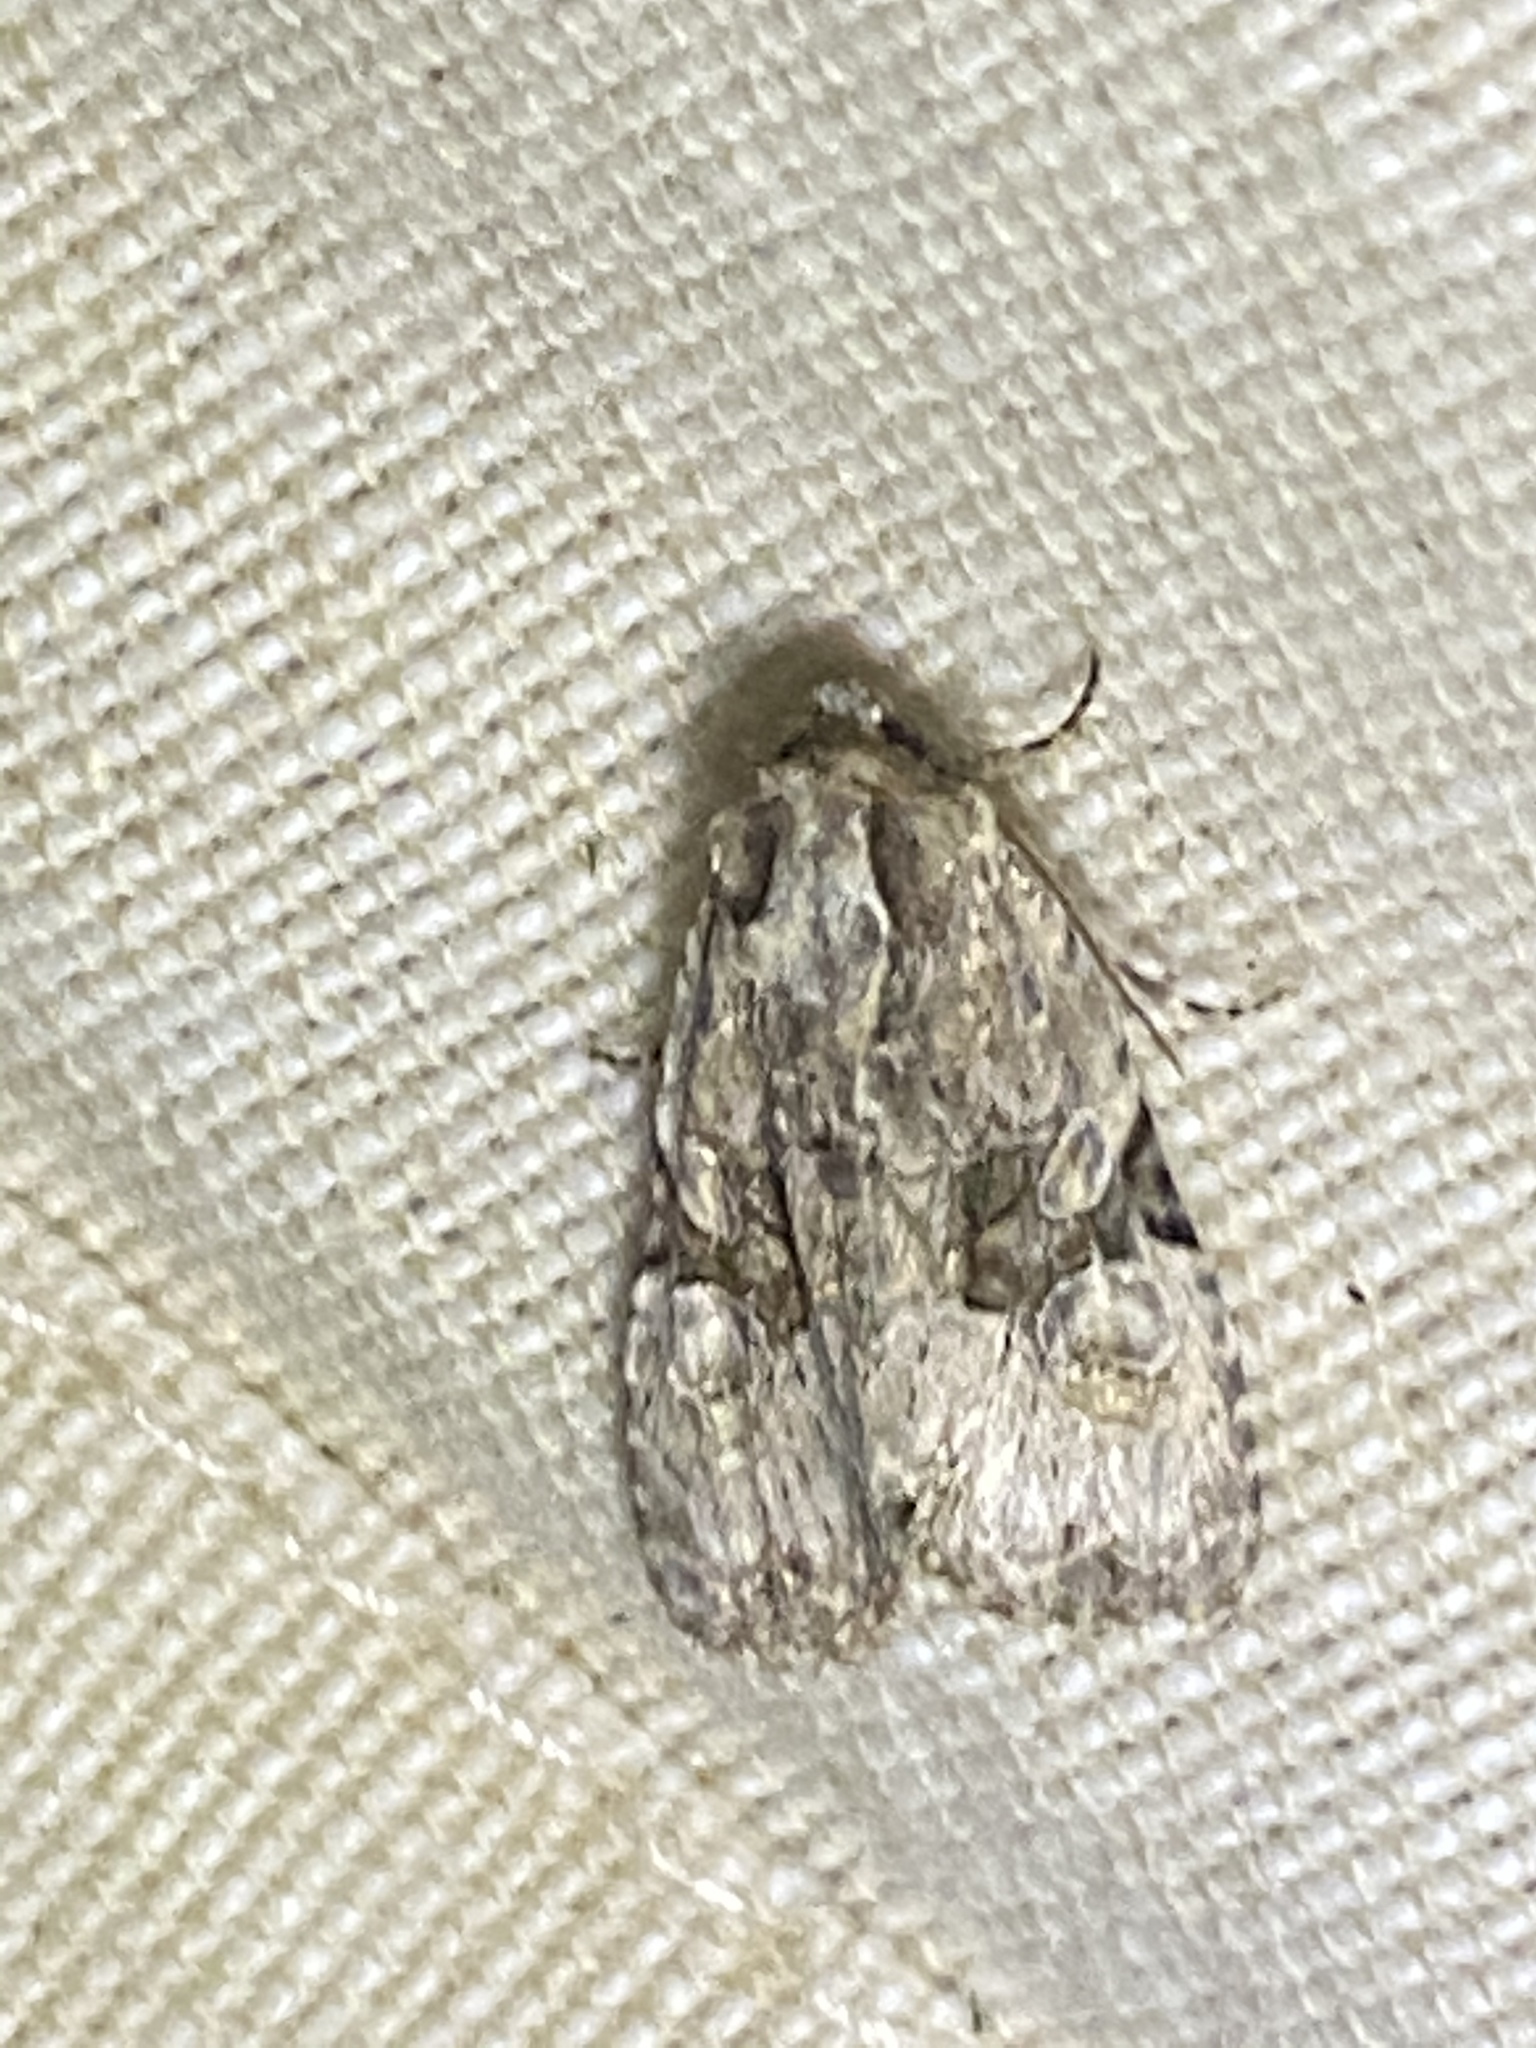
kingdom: Animalia
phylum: Arthropoda
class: Insecta
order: Lepidoptera
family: Noctuidae
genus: Oligia
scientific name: Oligia modica
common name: Black-banded brocade
